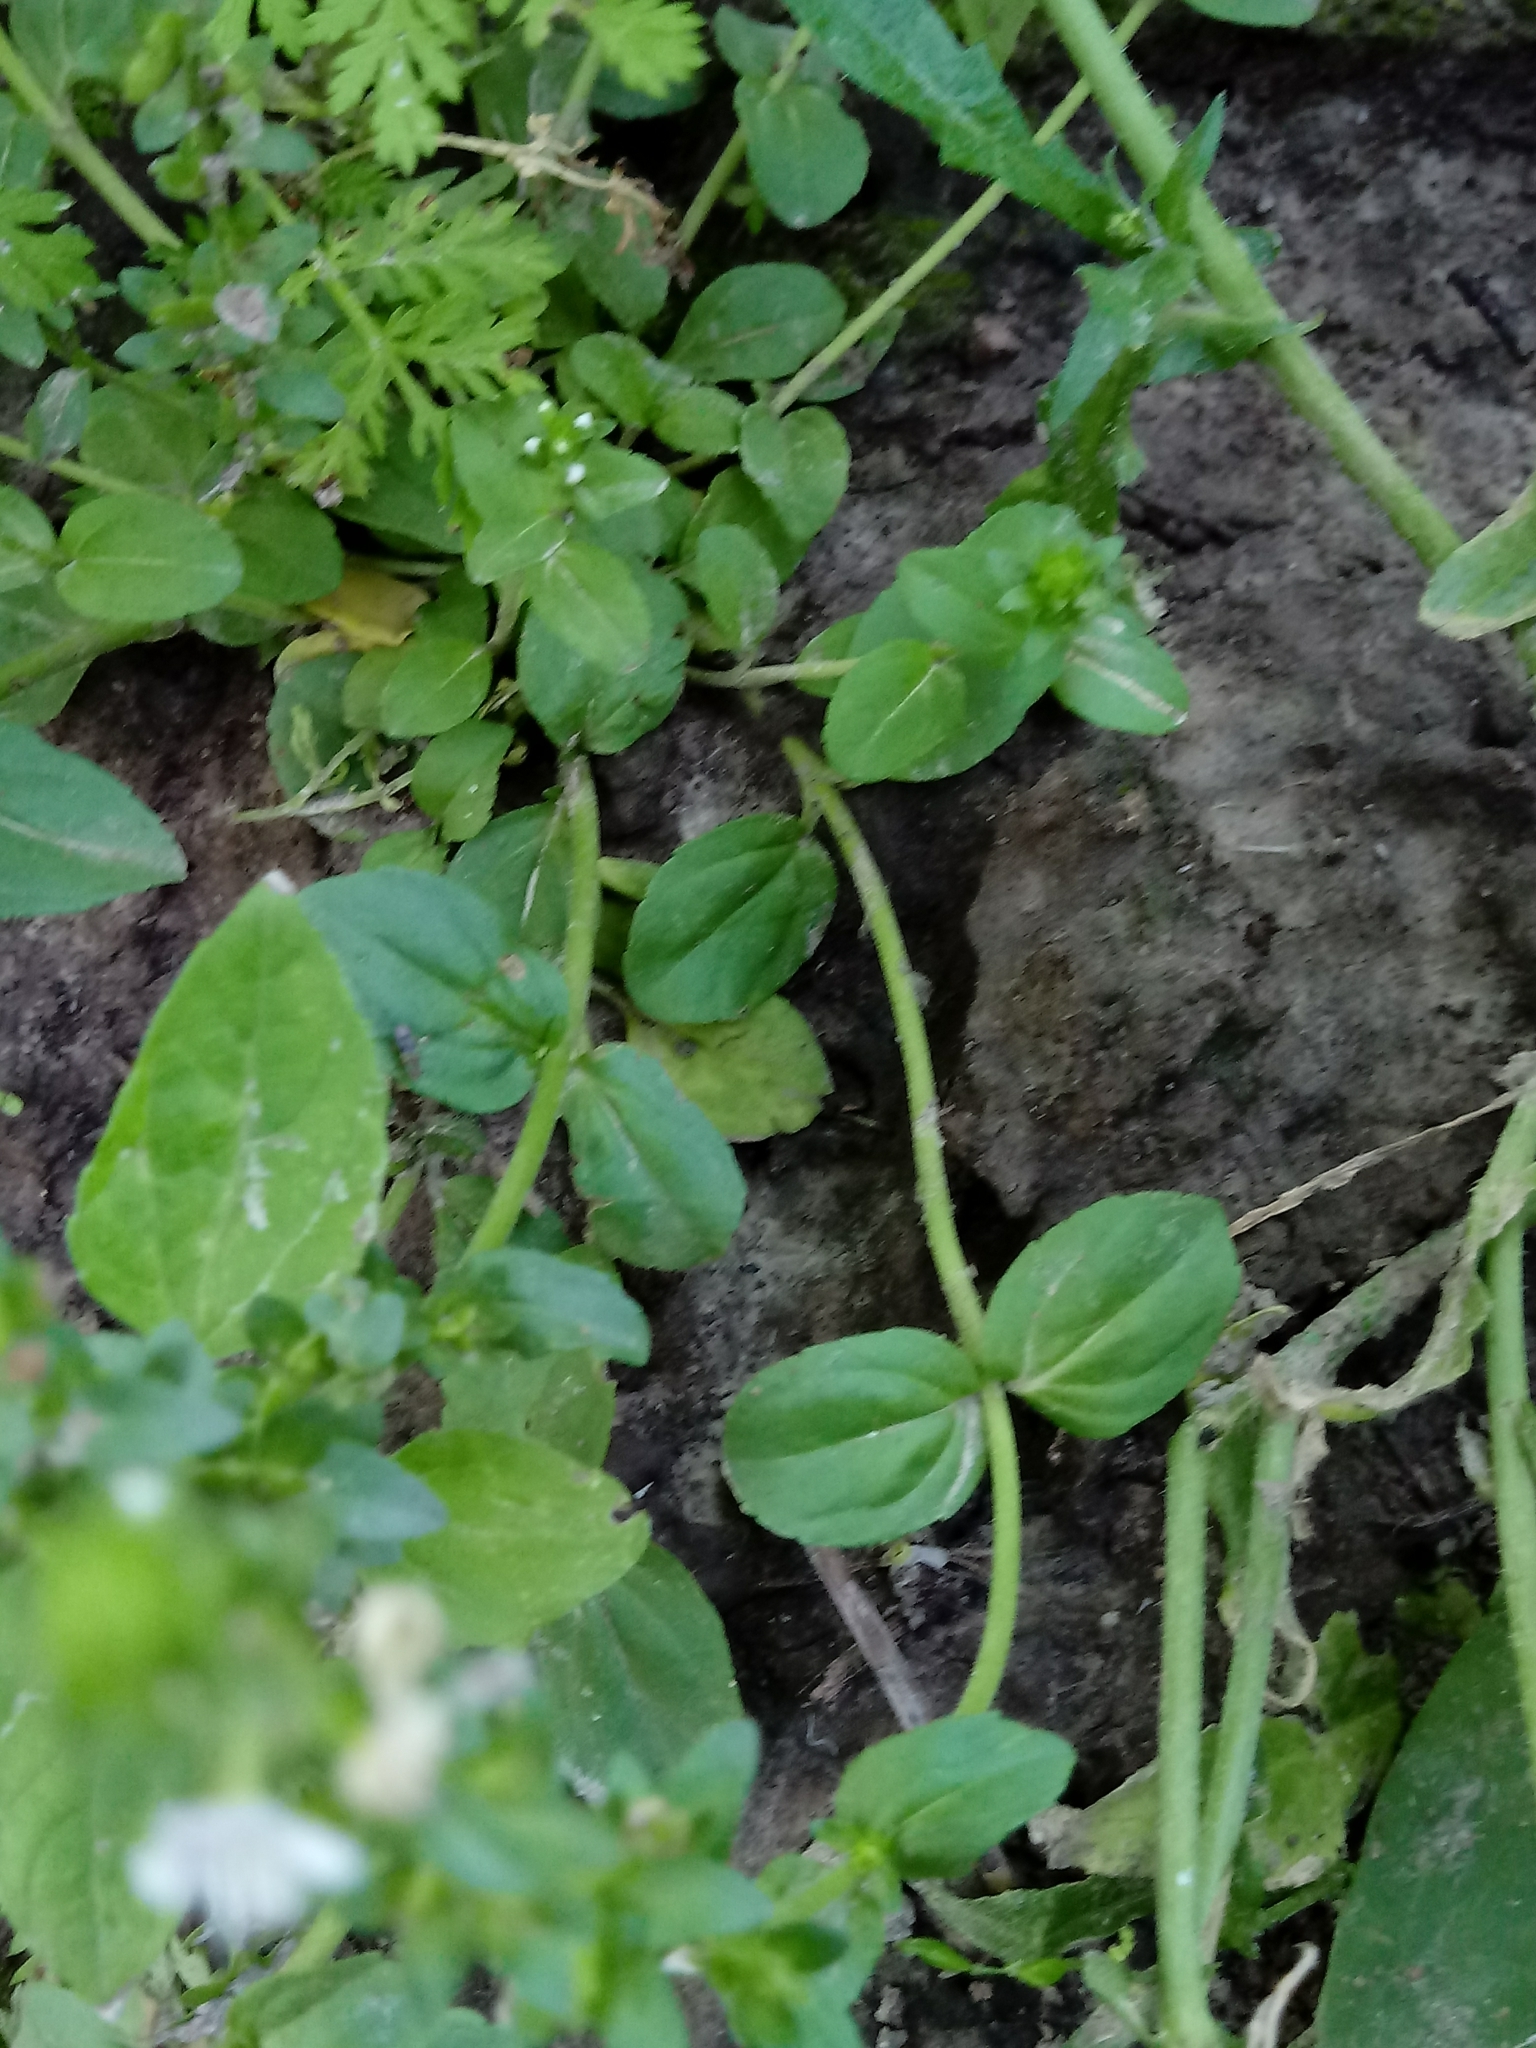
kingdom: Plantae
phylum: Tracheophyta
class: Magnoliopsida
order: Lamiales
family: Plantaginaceae
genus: Veronica
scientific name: Veronica serpyllifolia
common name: Thyme-leaved speedwell
